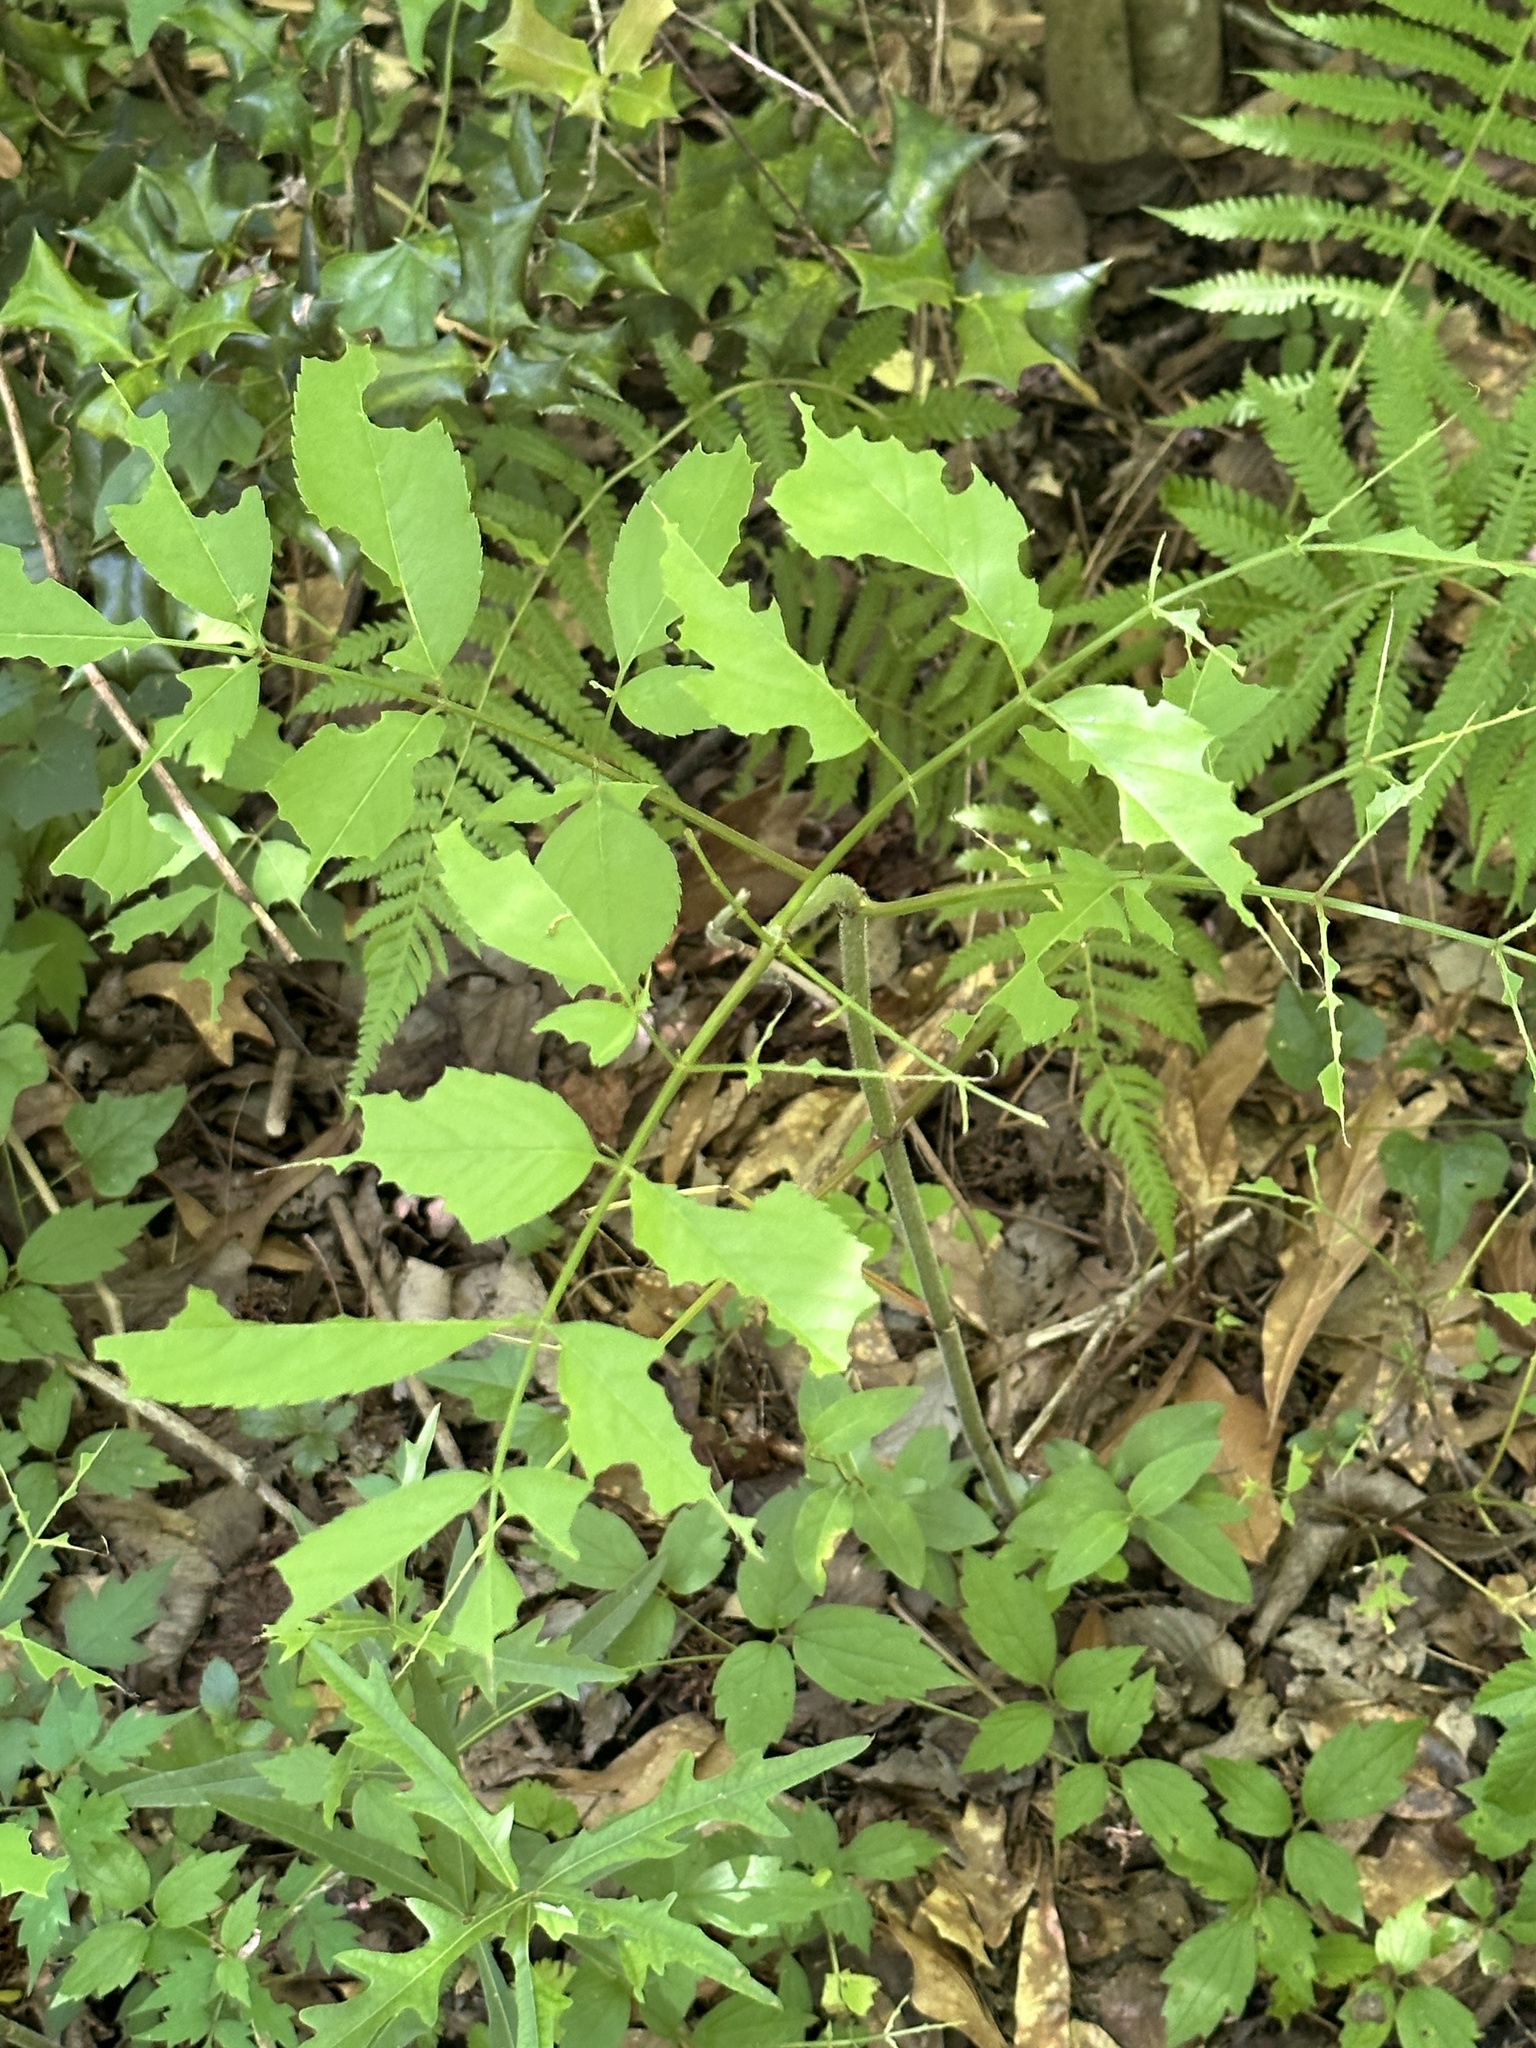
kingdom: Plantae
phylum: Tracheophyta
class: Magnoliopsida
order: Dipsacales
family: Viburnaceae
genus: Sambucus
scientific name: Sambucus canadensis
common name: American elder
